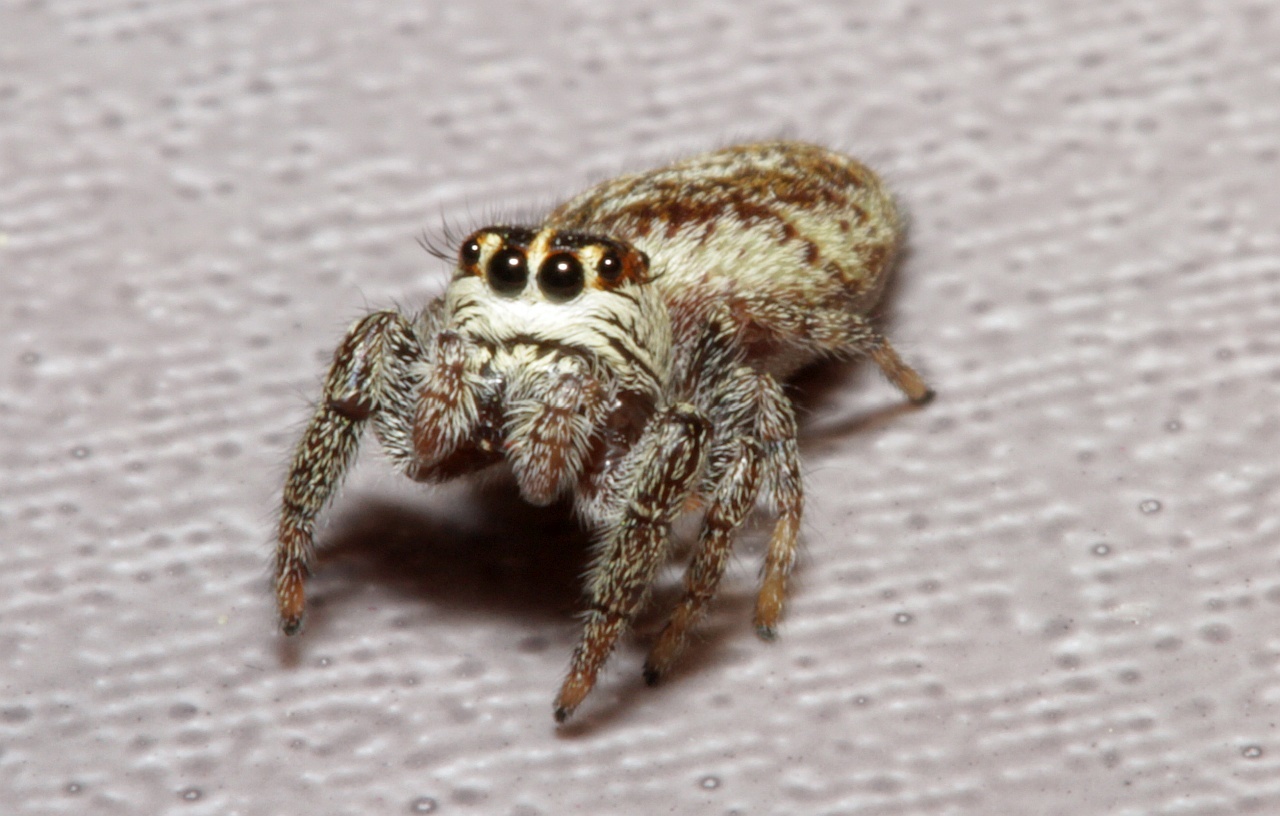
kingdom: Animalia
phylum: Arthropoda
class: Arachnida
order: Araneae
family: Salticidae
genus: Macaroeris
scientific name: Macaroeris nidicolens
